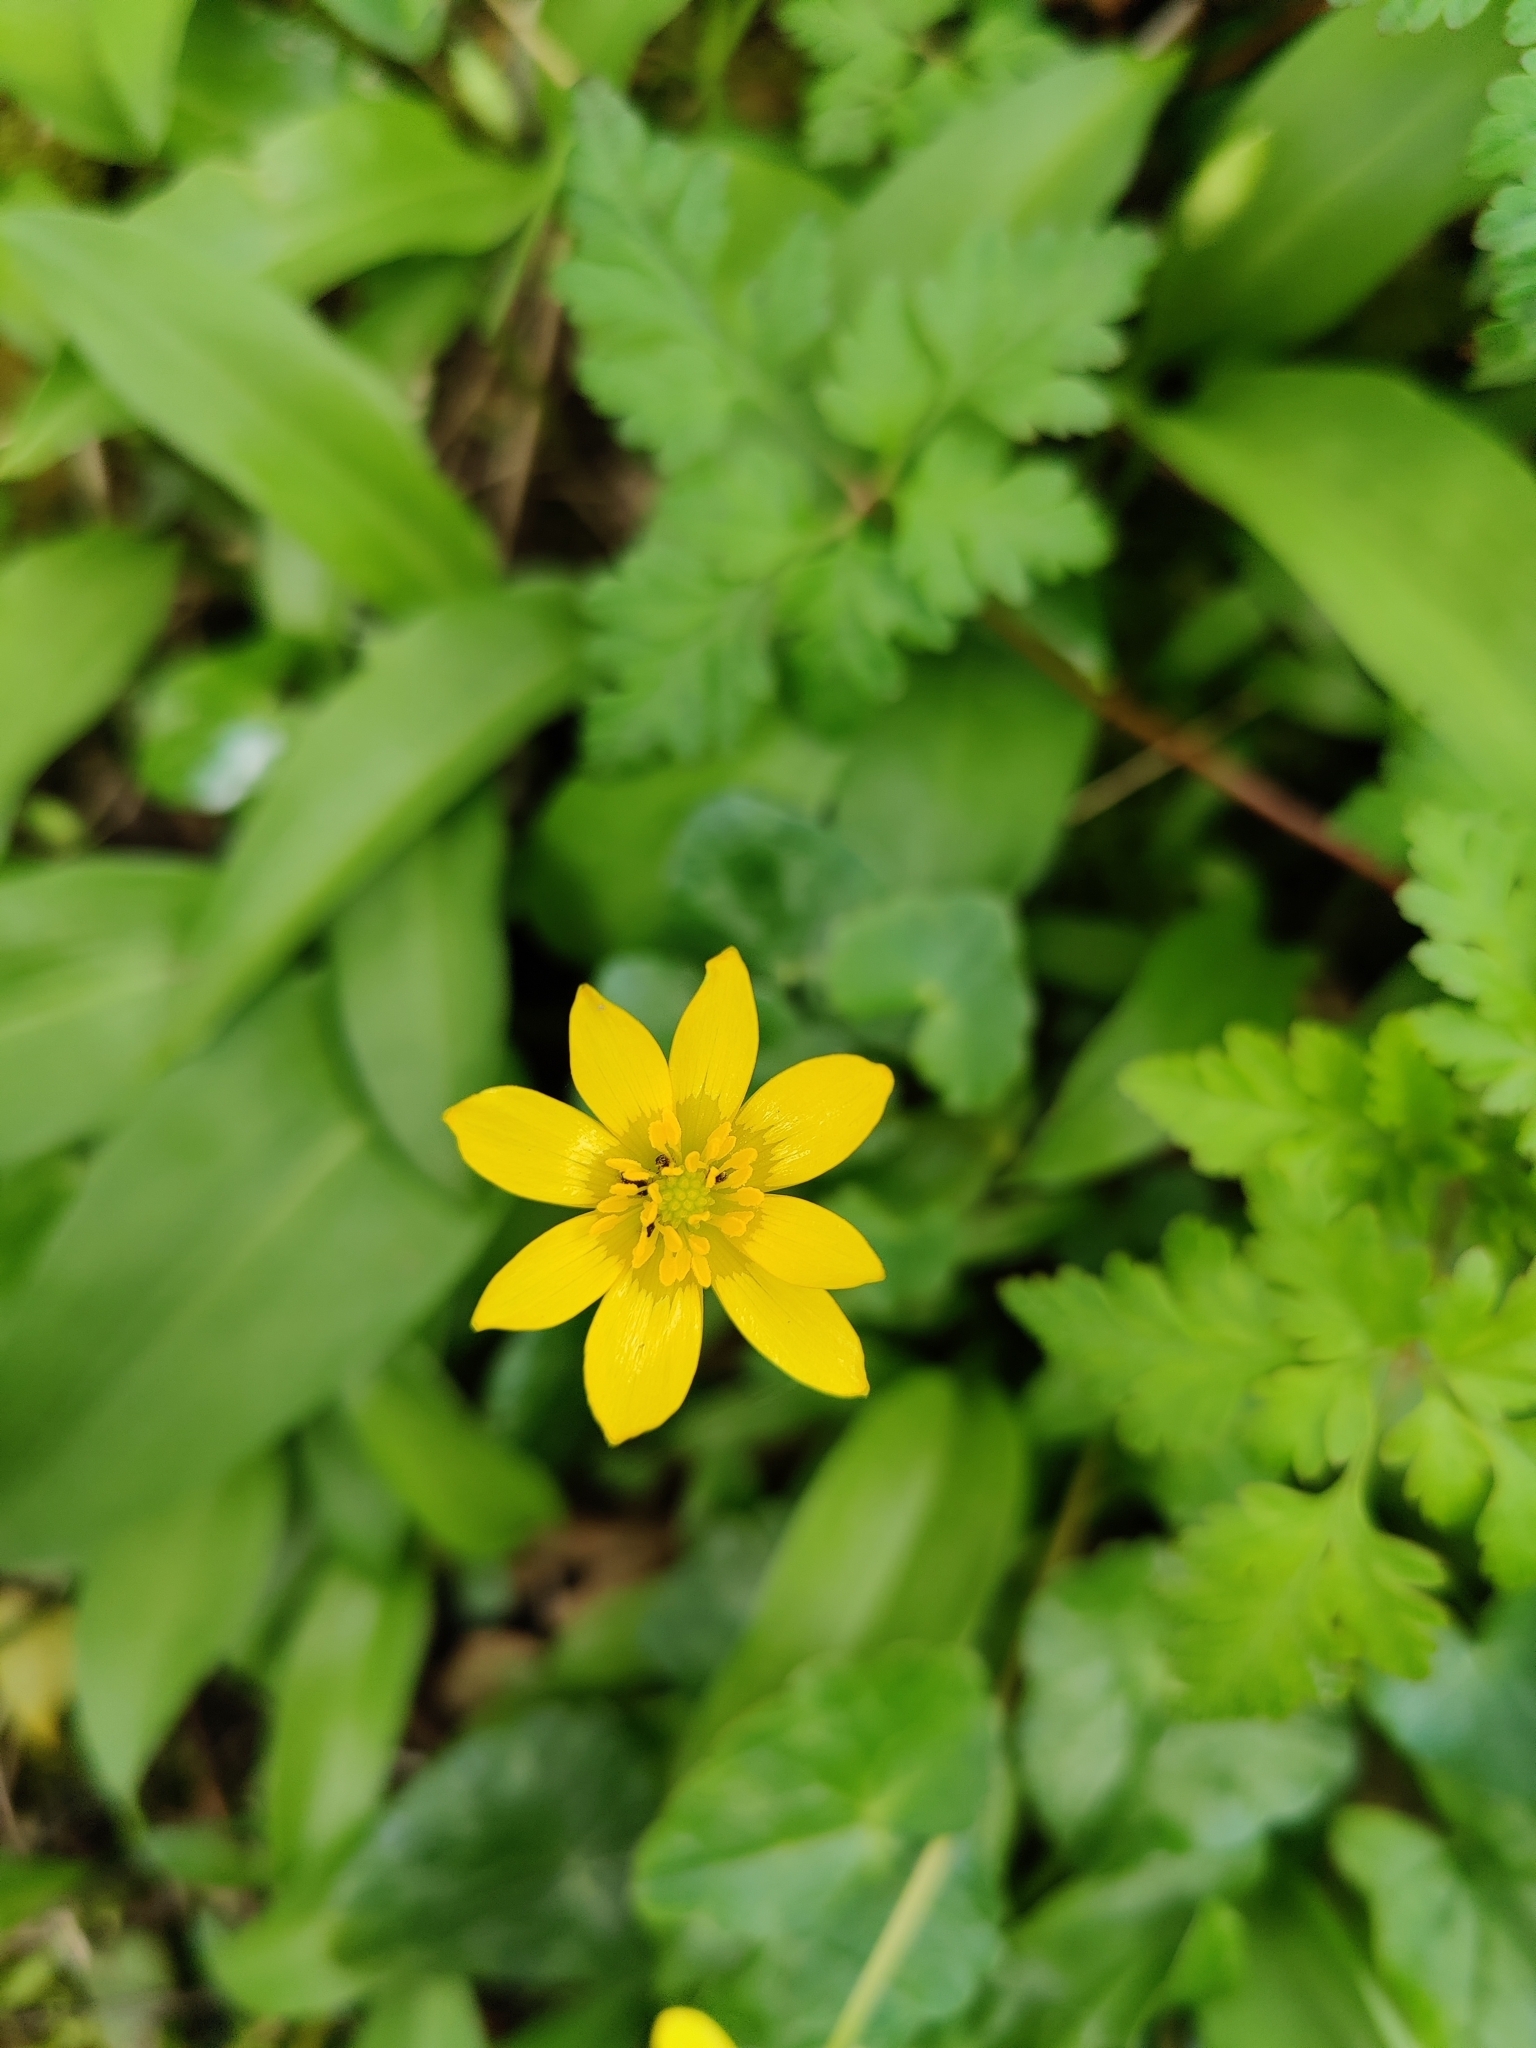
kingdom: Plantae
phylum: Tracheophyta
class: Magnoliopsida
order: Ranunculales
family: Ranunculaceae
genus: Ficaria
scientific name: Ficaria verna
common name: Lesser celandine
